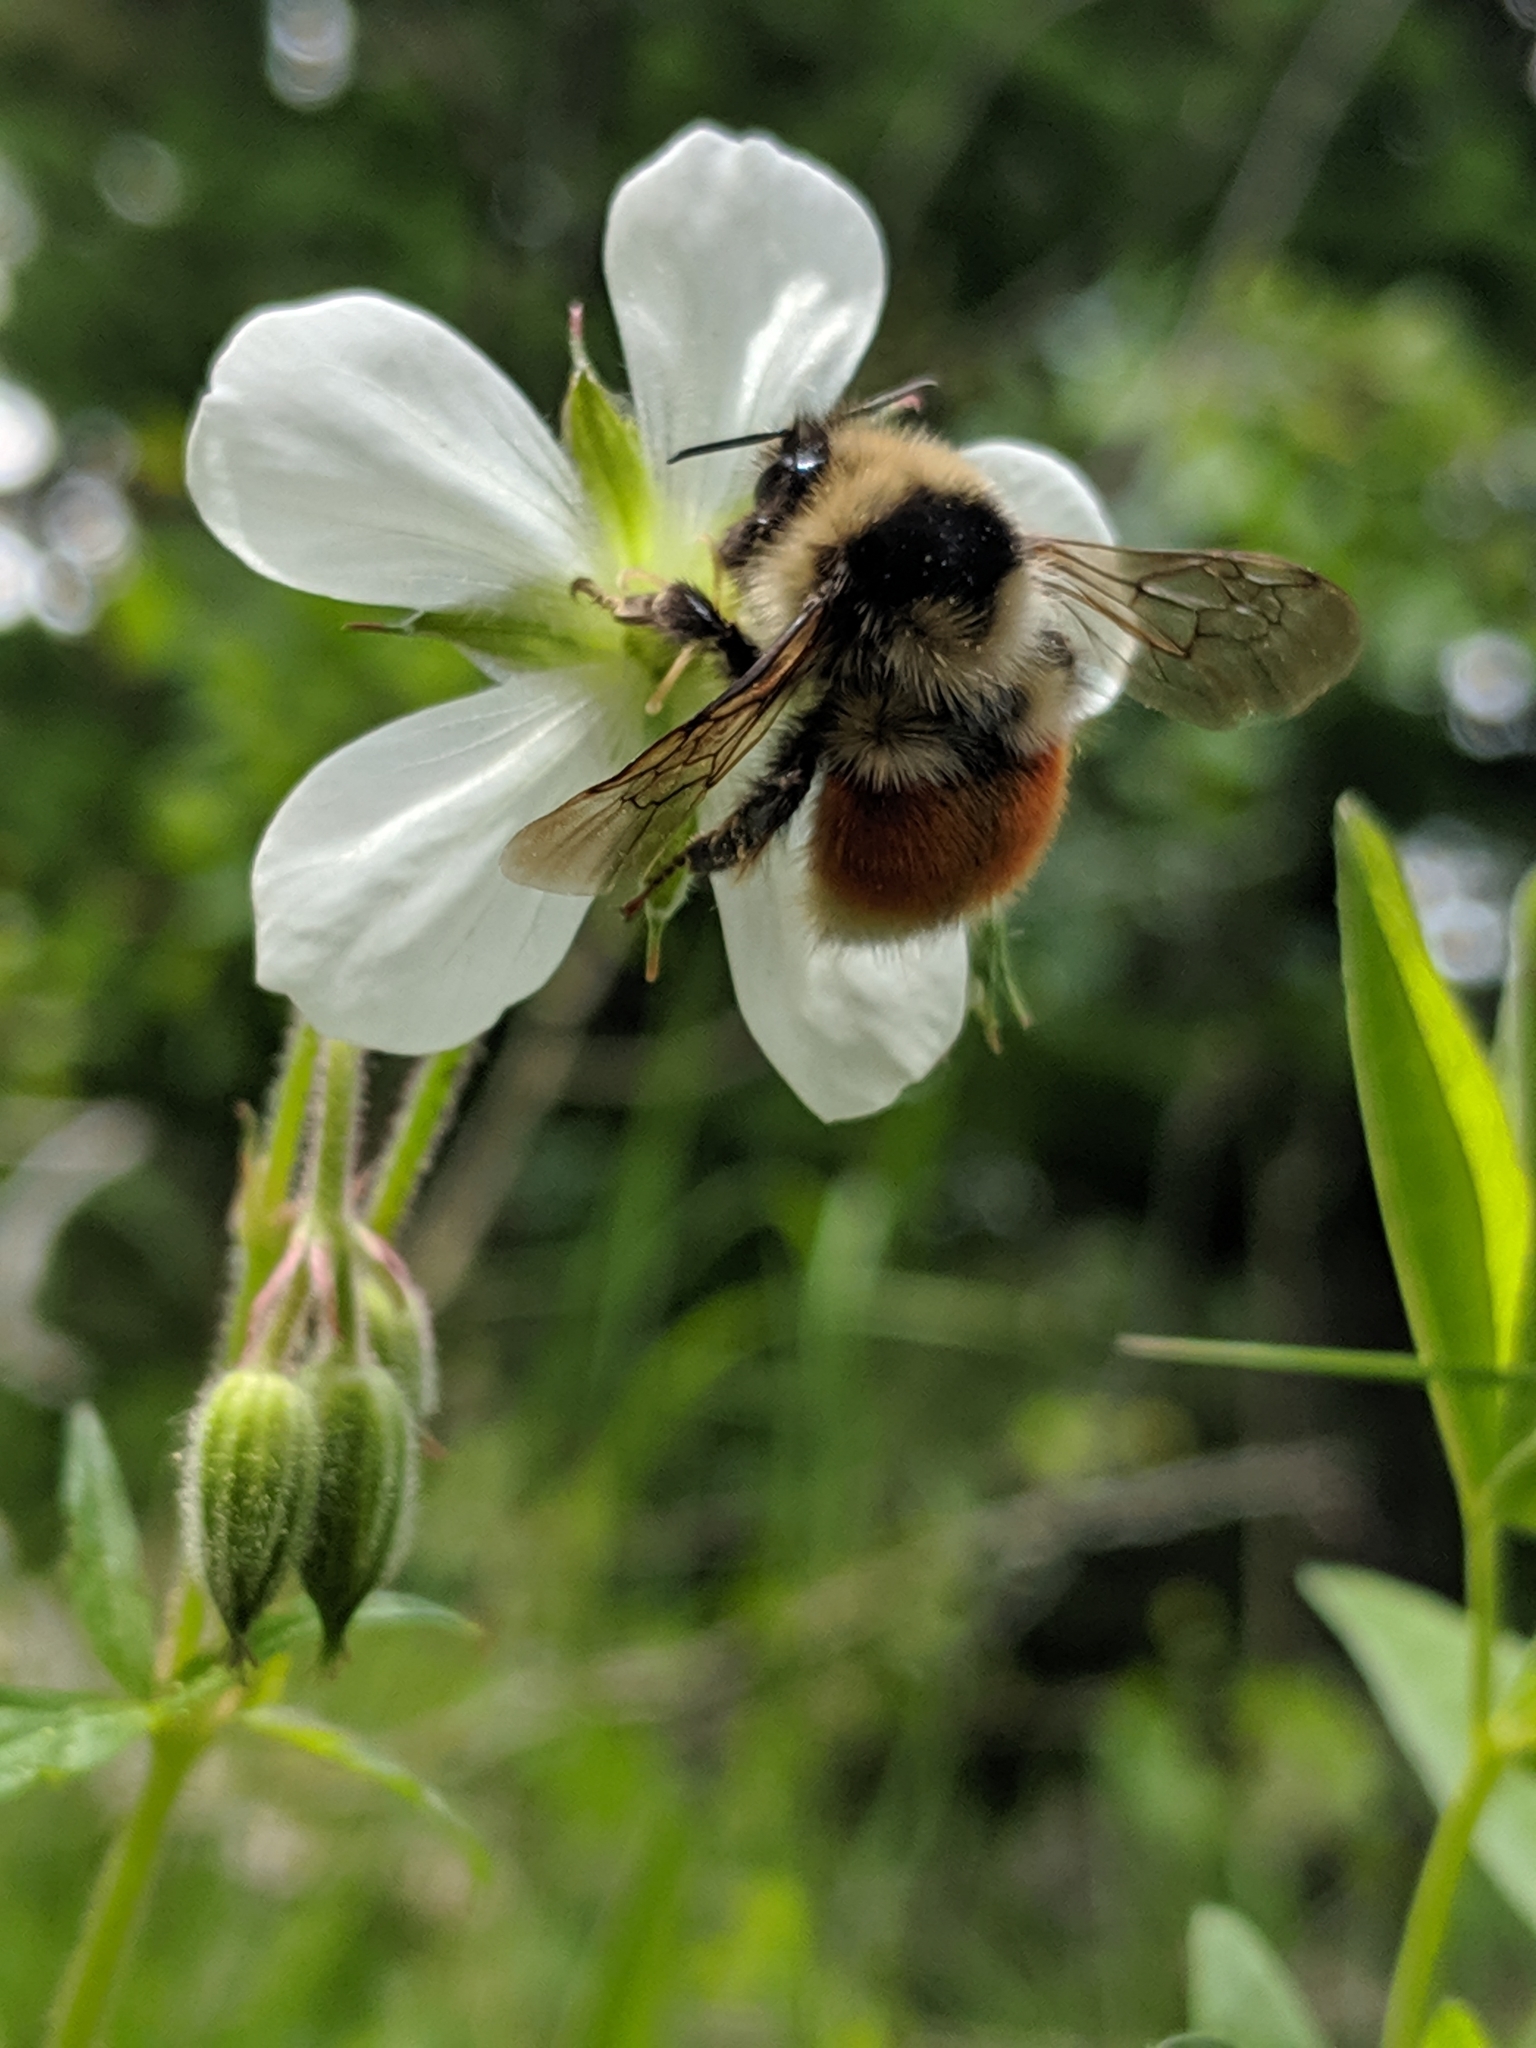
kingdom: Animalia
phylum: Arthropoda
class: Insecta
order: Hymenoptera
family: Apidae
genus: Bombus
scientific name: Bombus sylvicola
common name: Forest bumble bee
